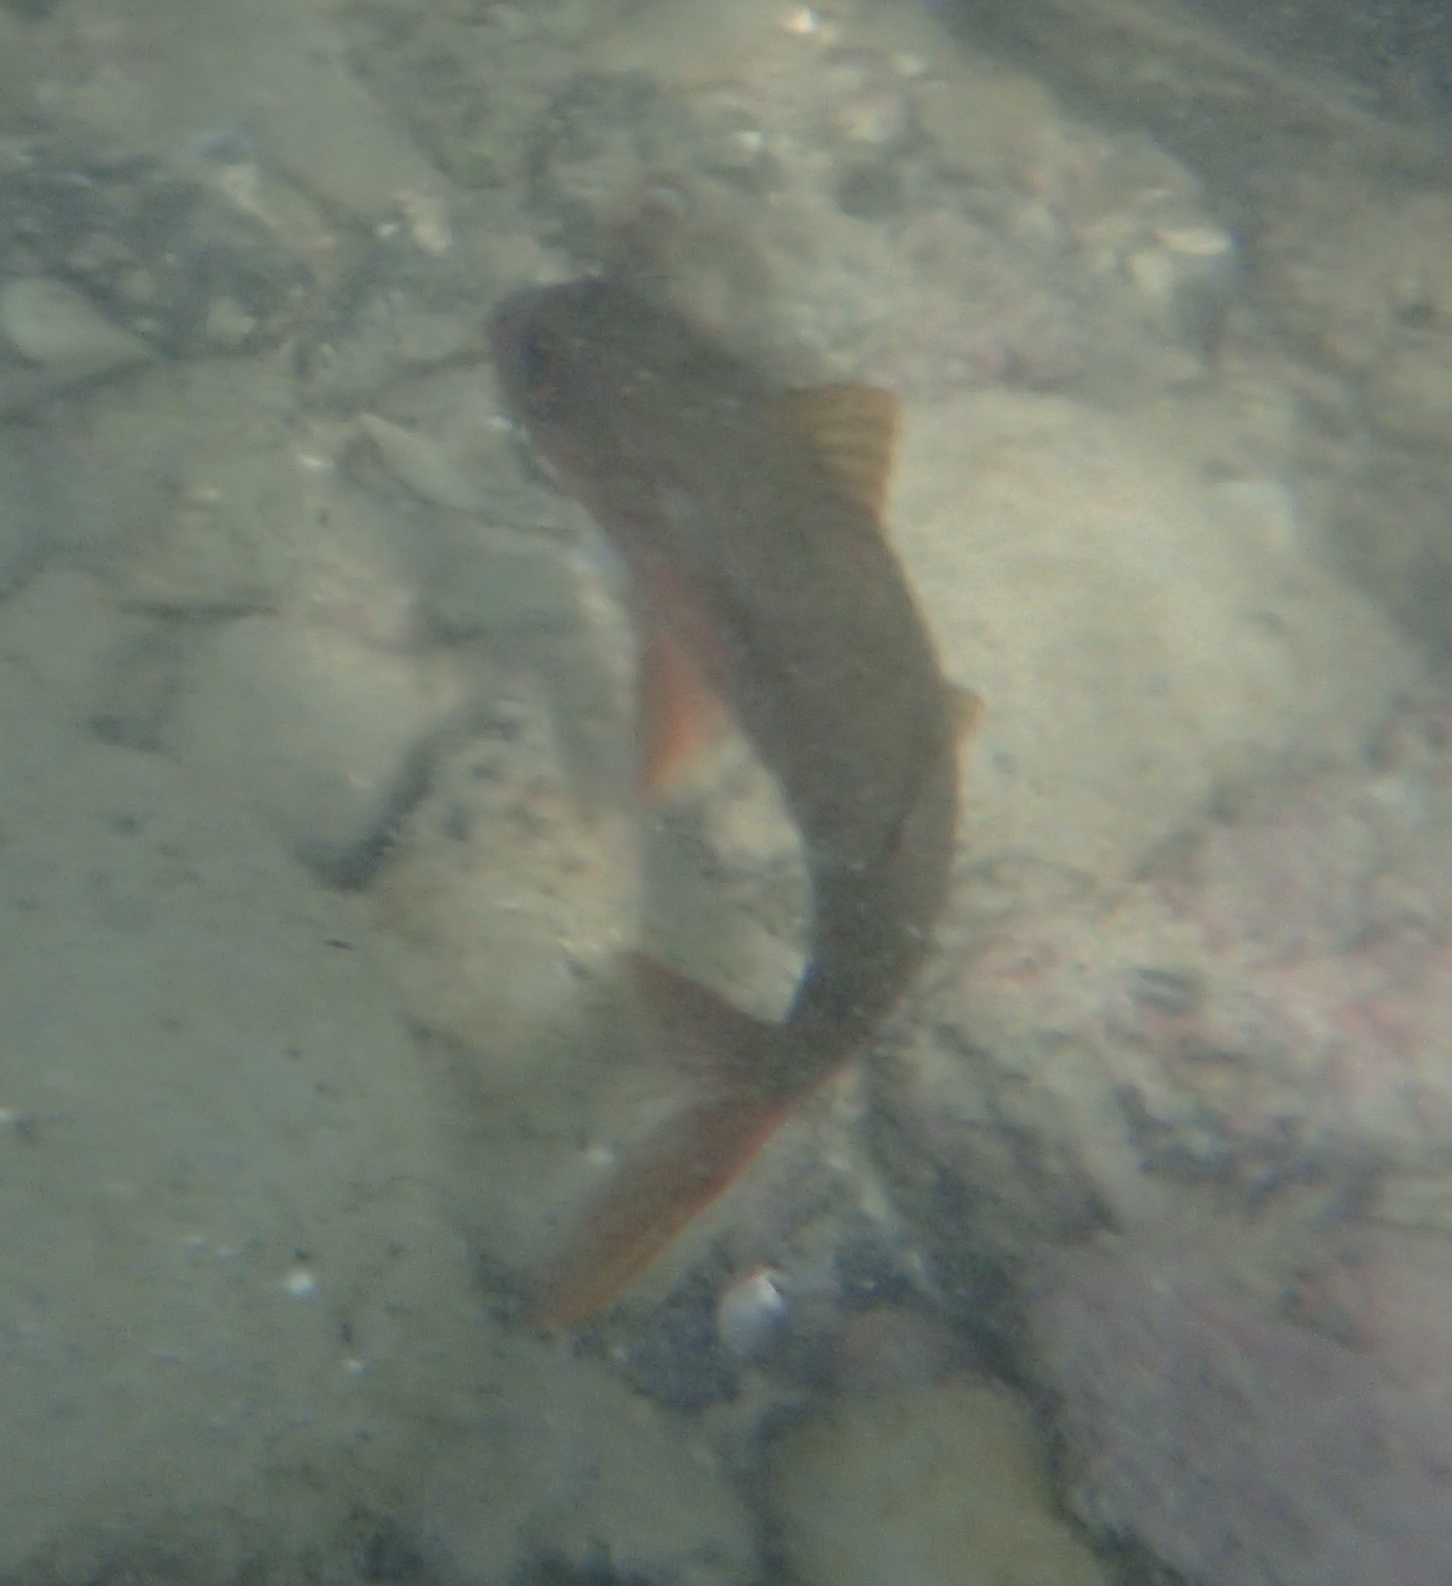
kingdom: Animalia
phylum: Chordata
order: Perciformes
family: Mullidae
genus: Mulloidichthys
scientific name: Mulloidichthys vanicolensis
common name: Yellowfin goatfish
